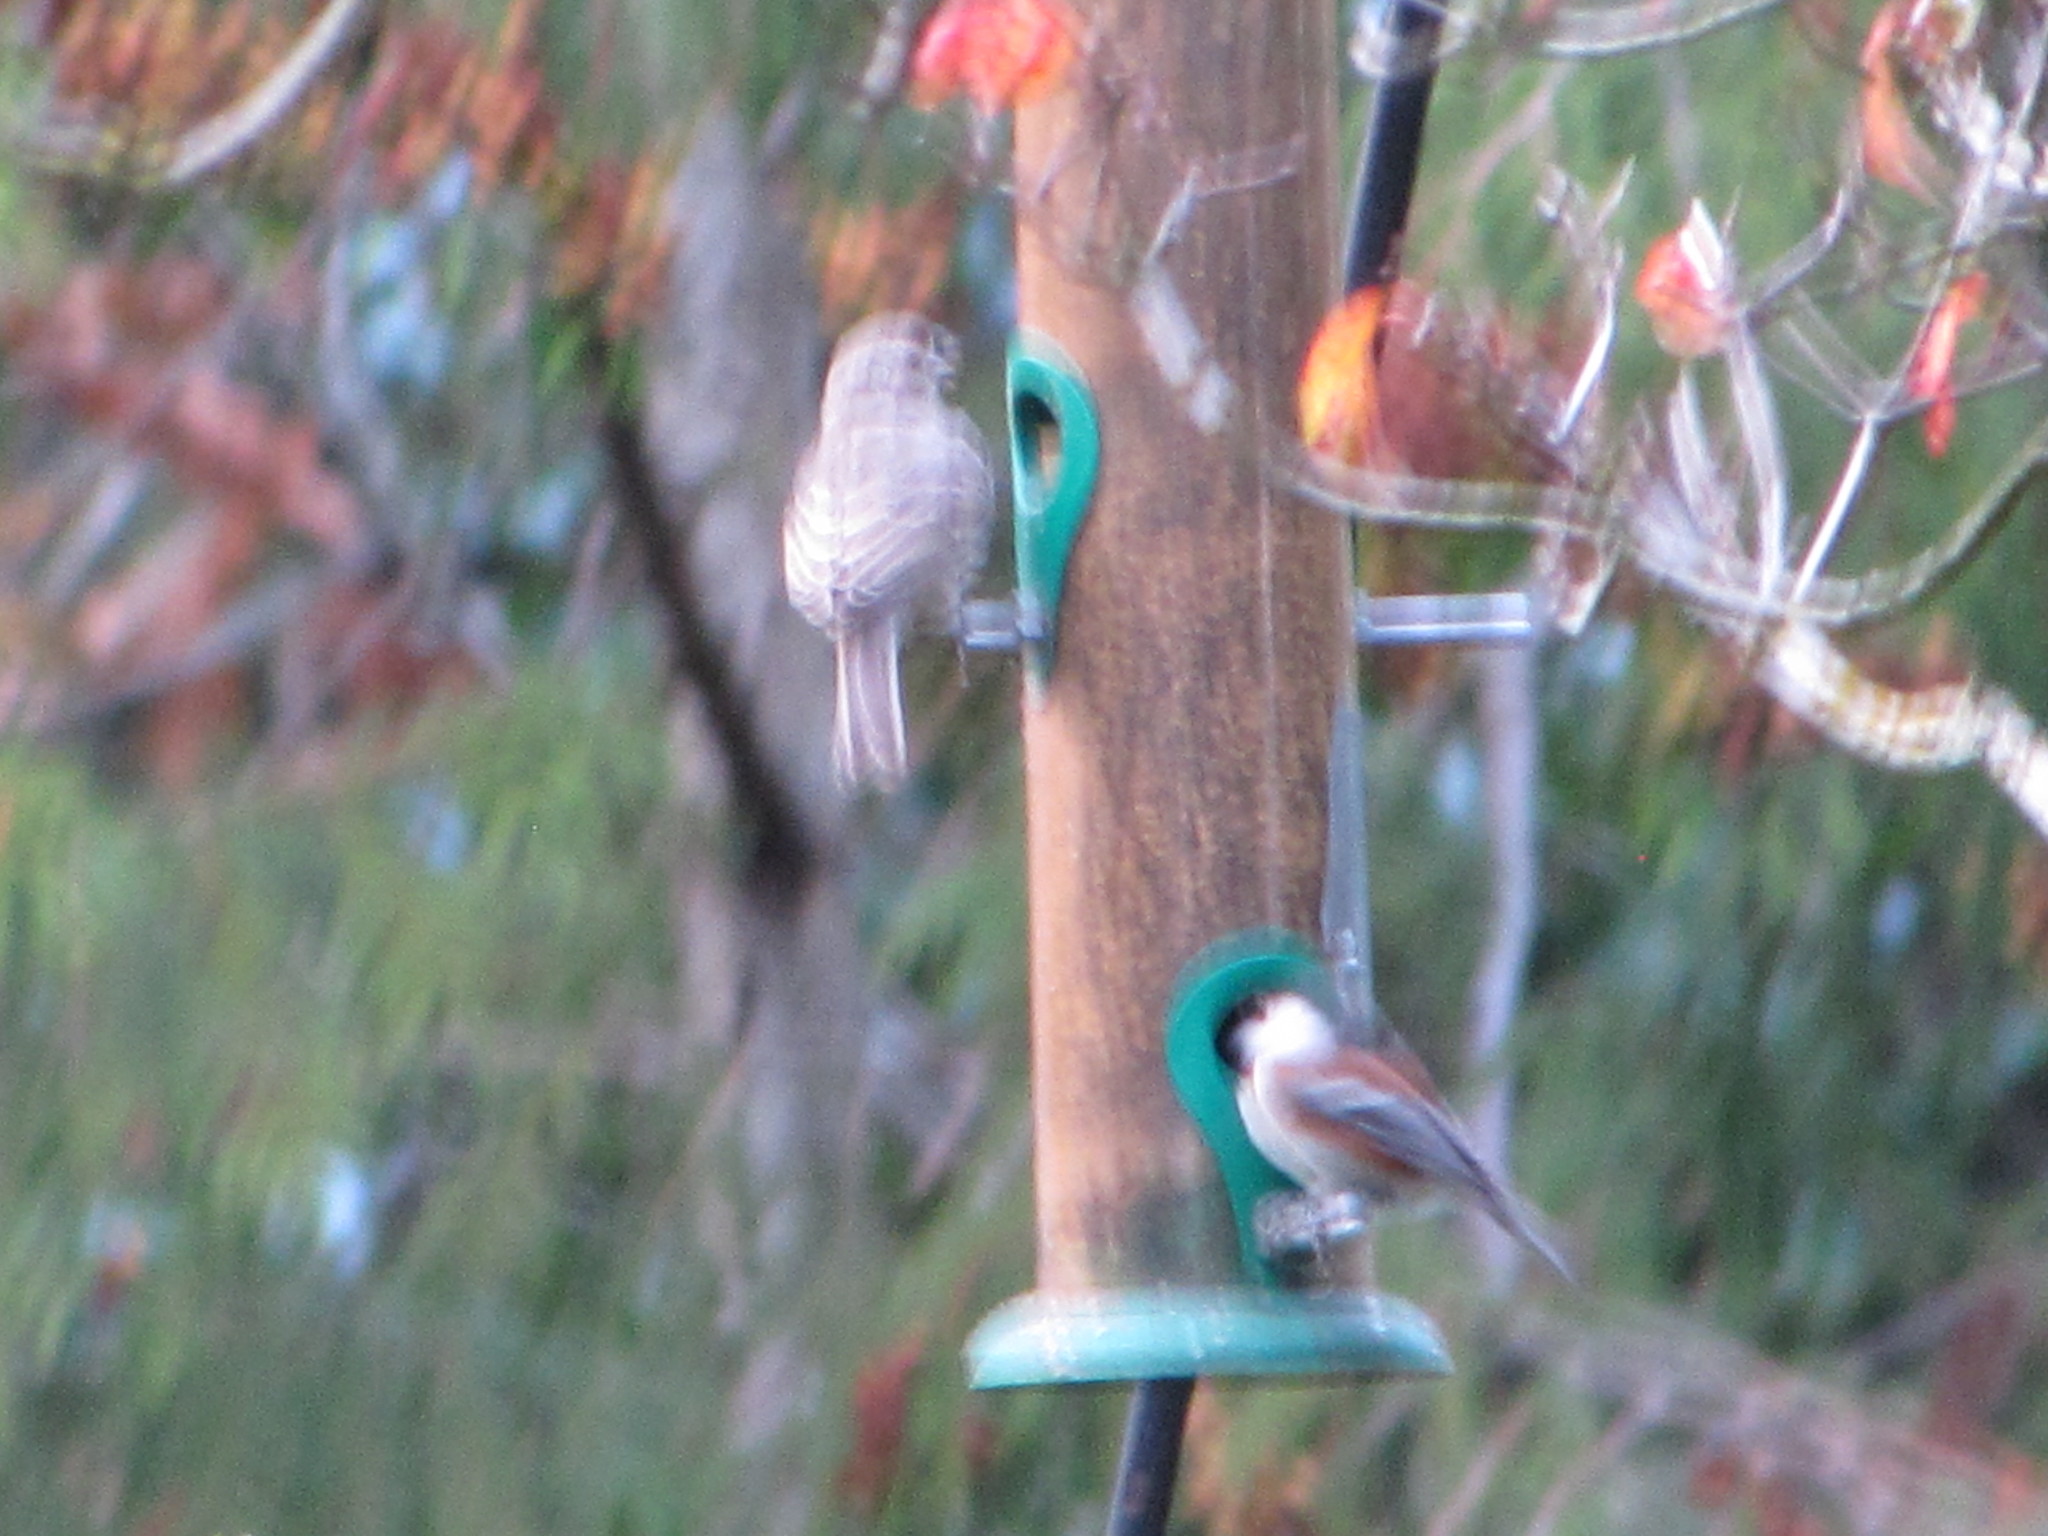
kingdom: Animalia
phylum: Chordata
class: Aves
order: Passeriformes
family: Paridae
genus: Poecile
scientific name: Poecile rufescens
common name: Chestnut-backed chickadee
